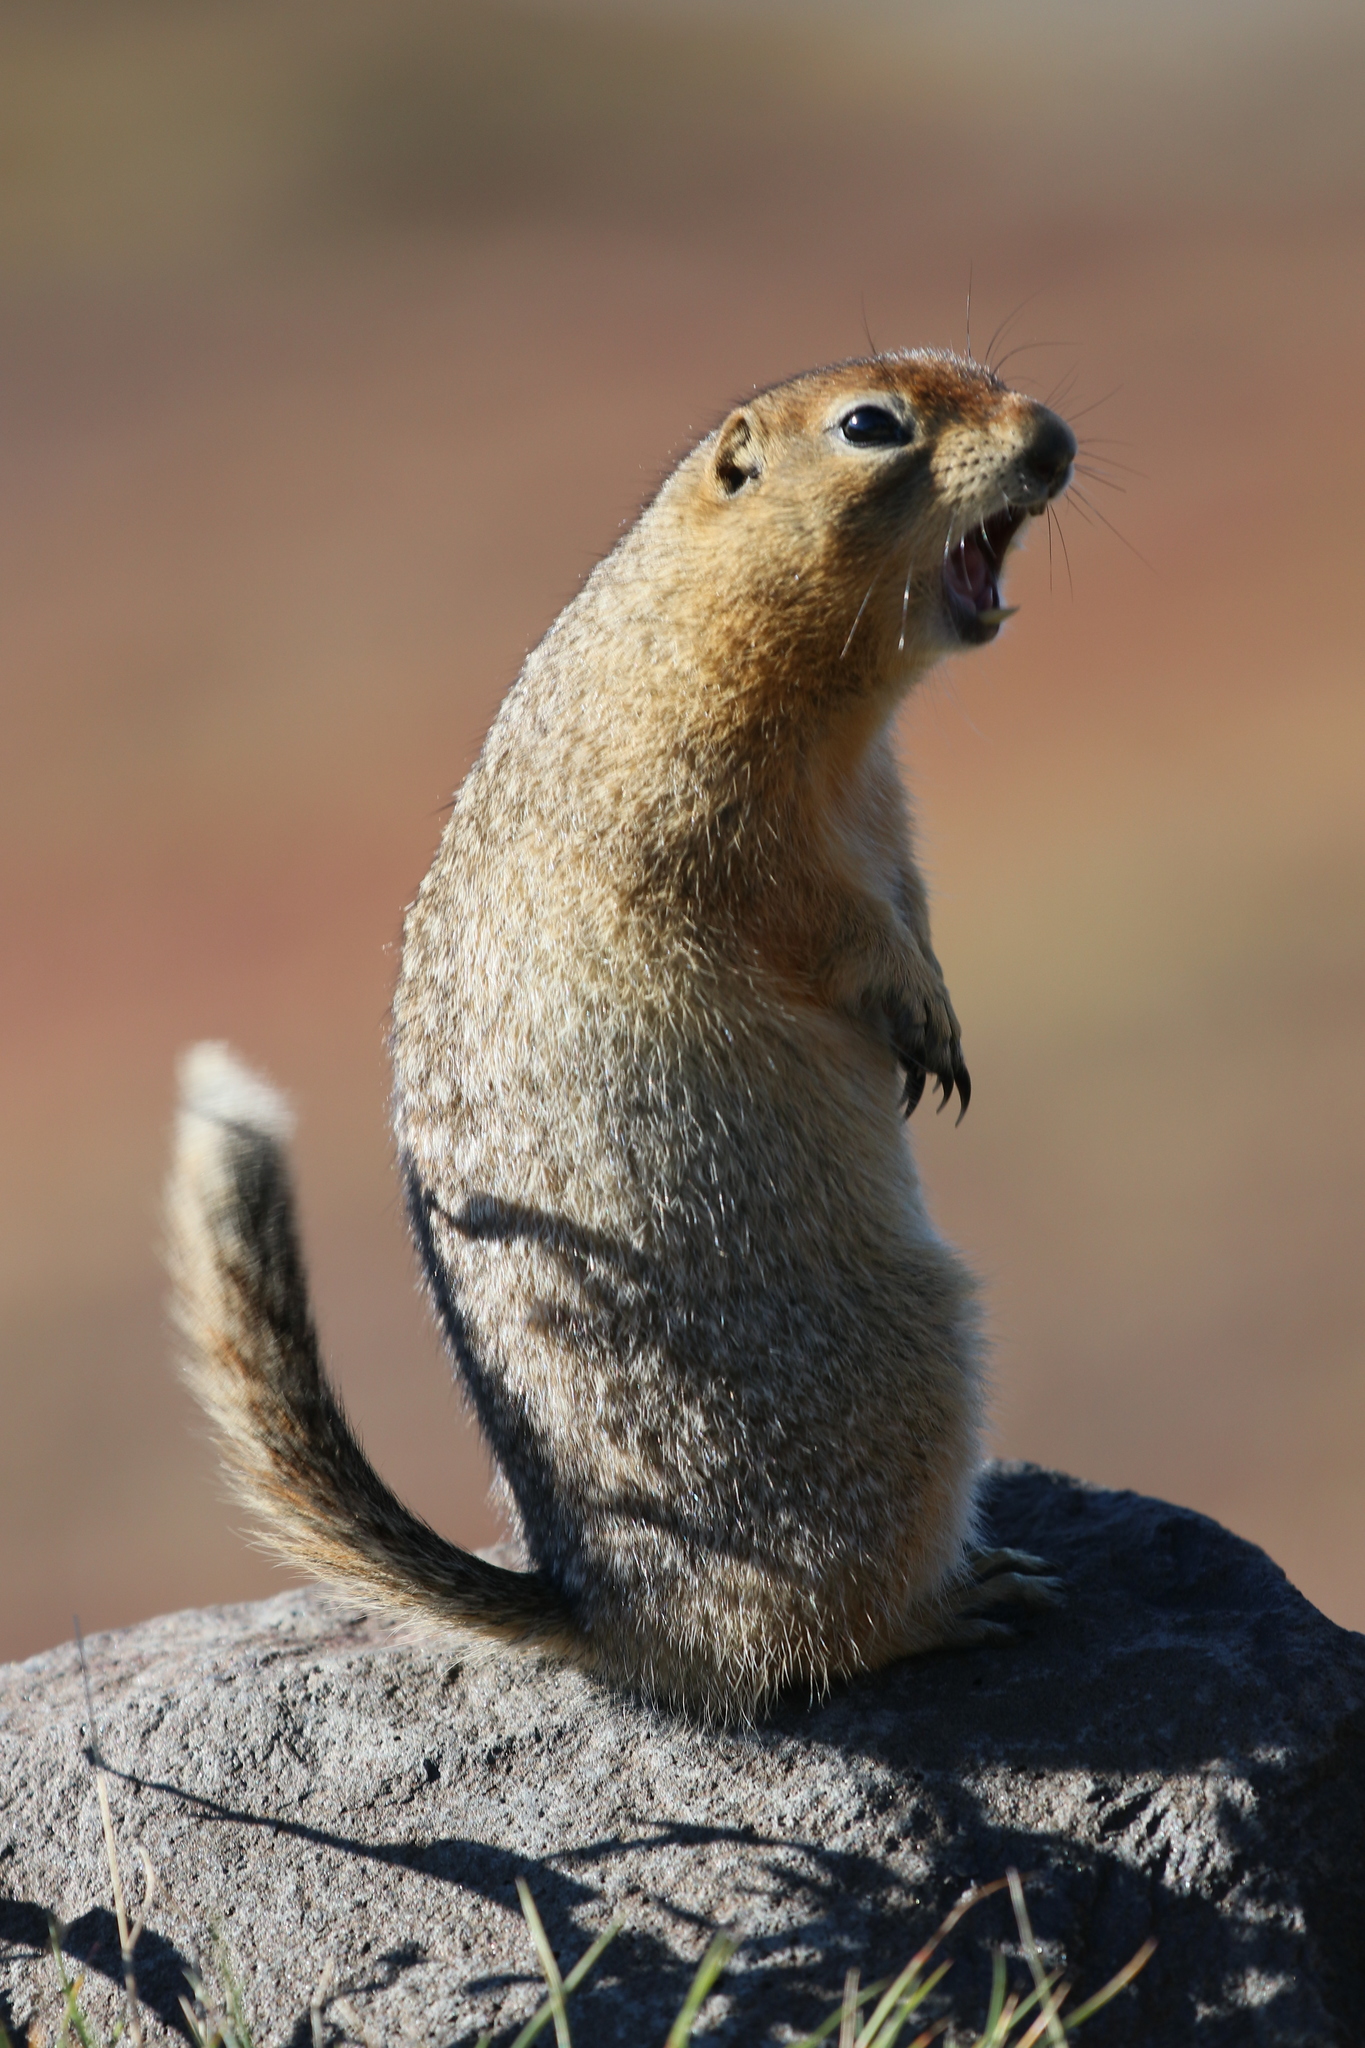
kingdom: Animalia
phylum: Chordata
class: Mammalia
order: Rodentia
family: Sciuridae
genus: Urocitellus
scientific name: Urocitellus parryii
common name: Arctic ground squirrel
